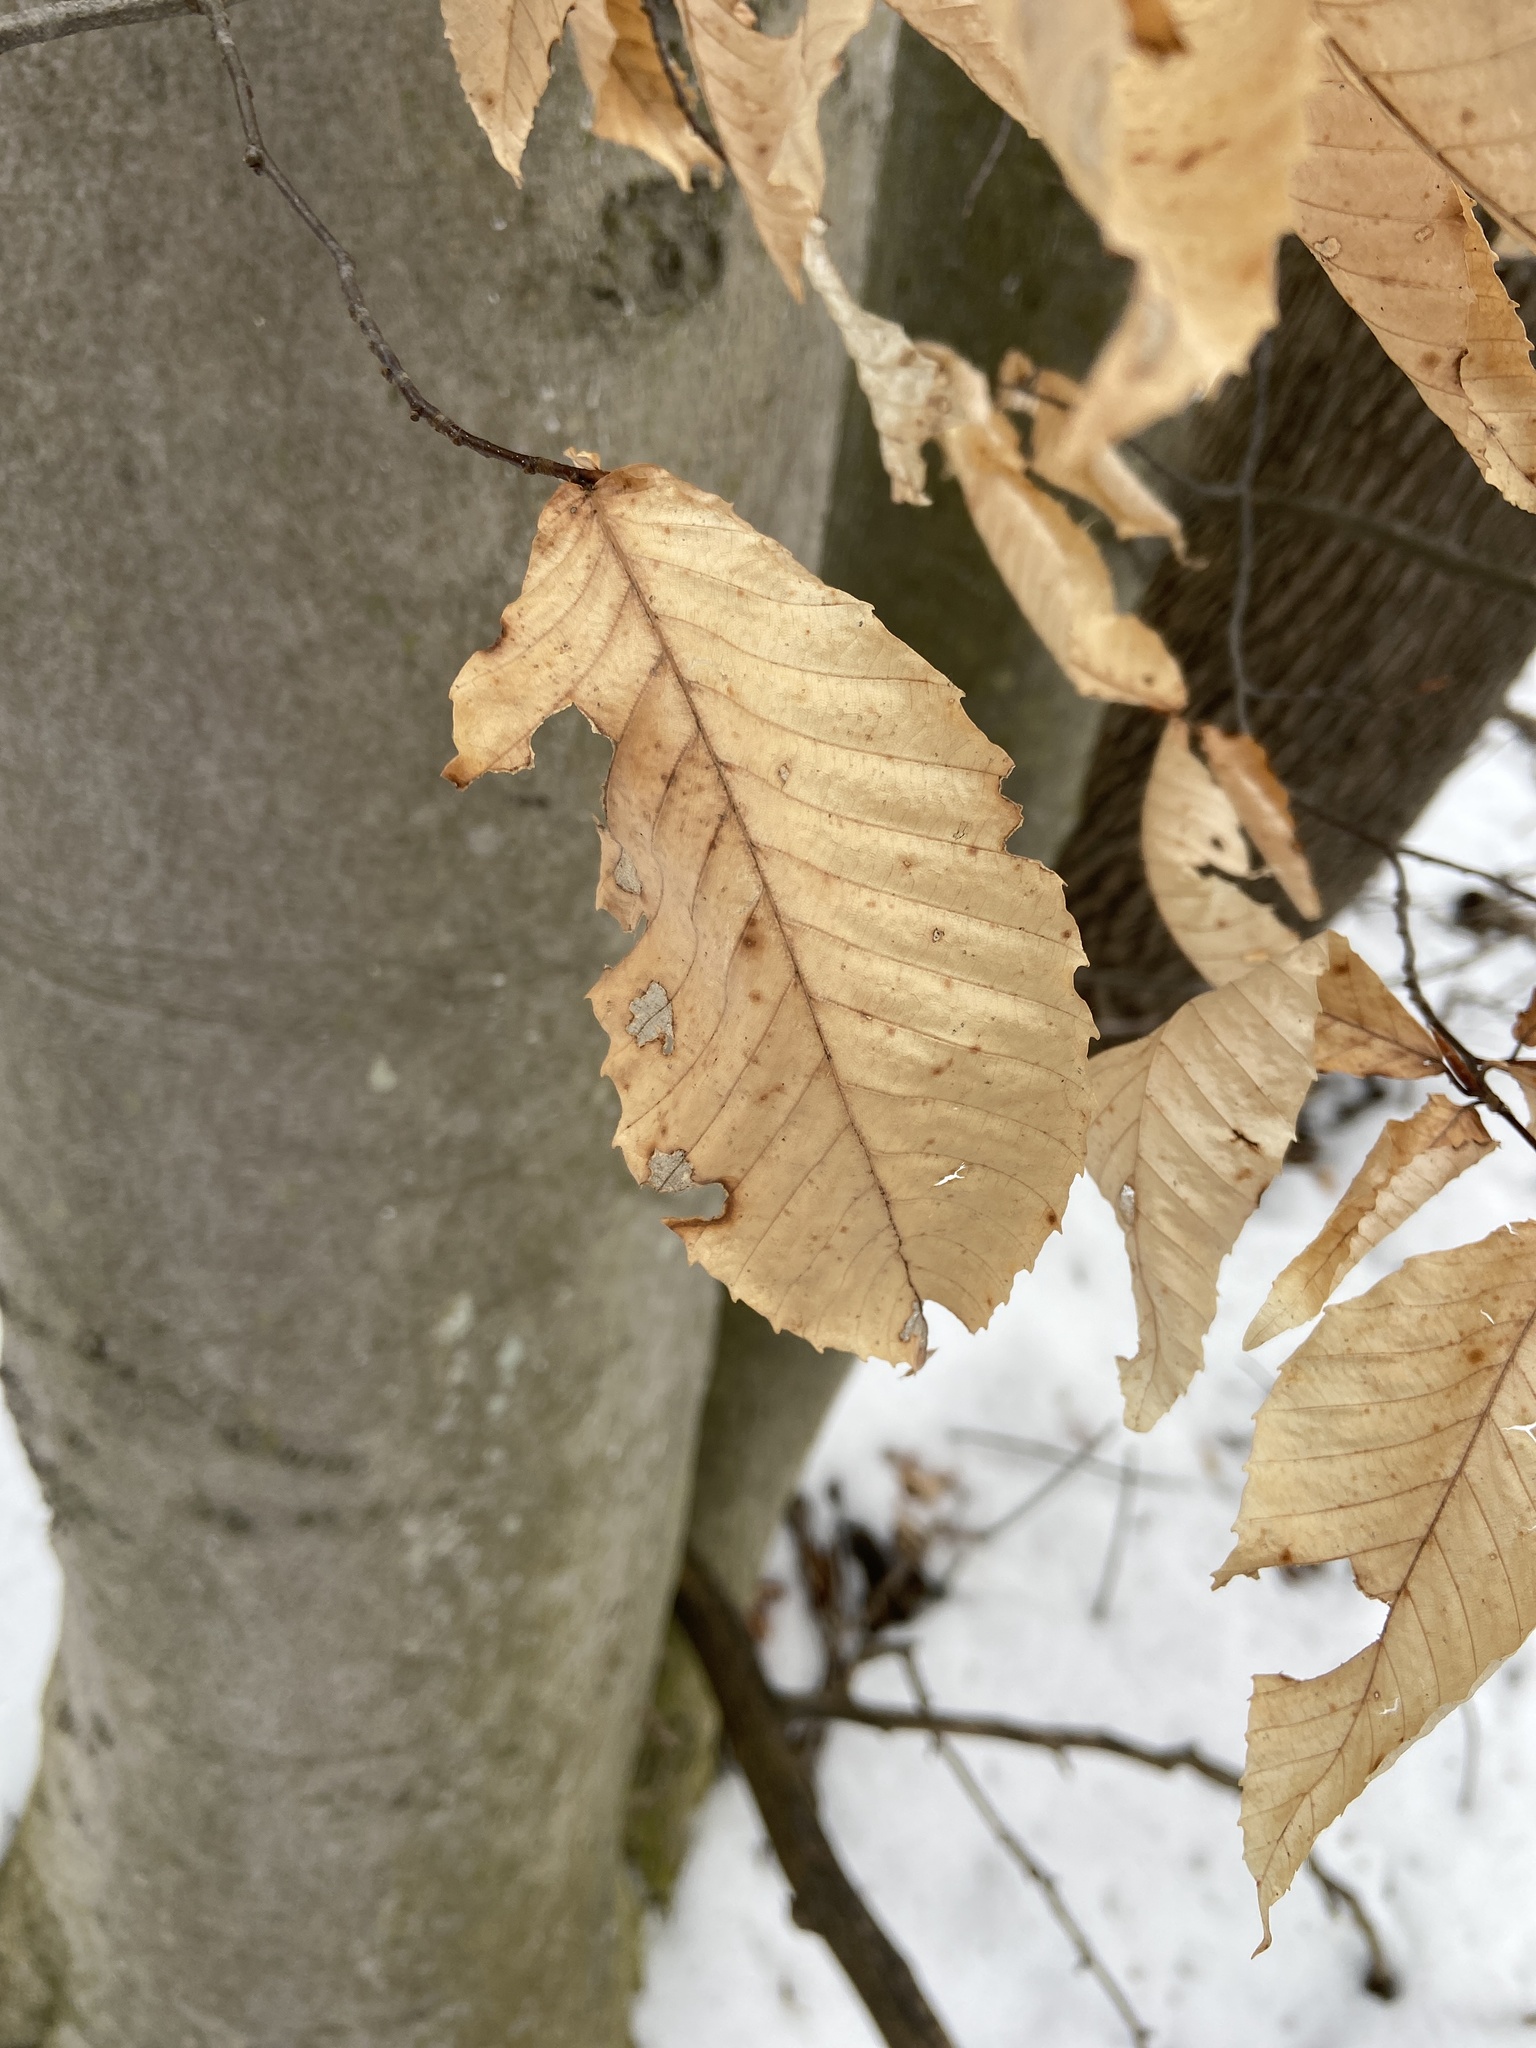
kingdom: Plantae
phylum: Tracheophyta
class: Magnoliopsida
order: Fagales
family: Fagaceae
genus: Fagus
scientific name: Fagus grandifolia
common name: American beech
